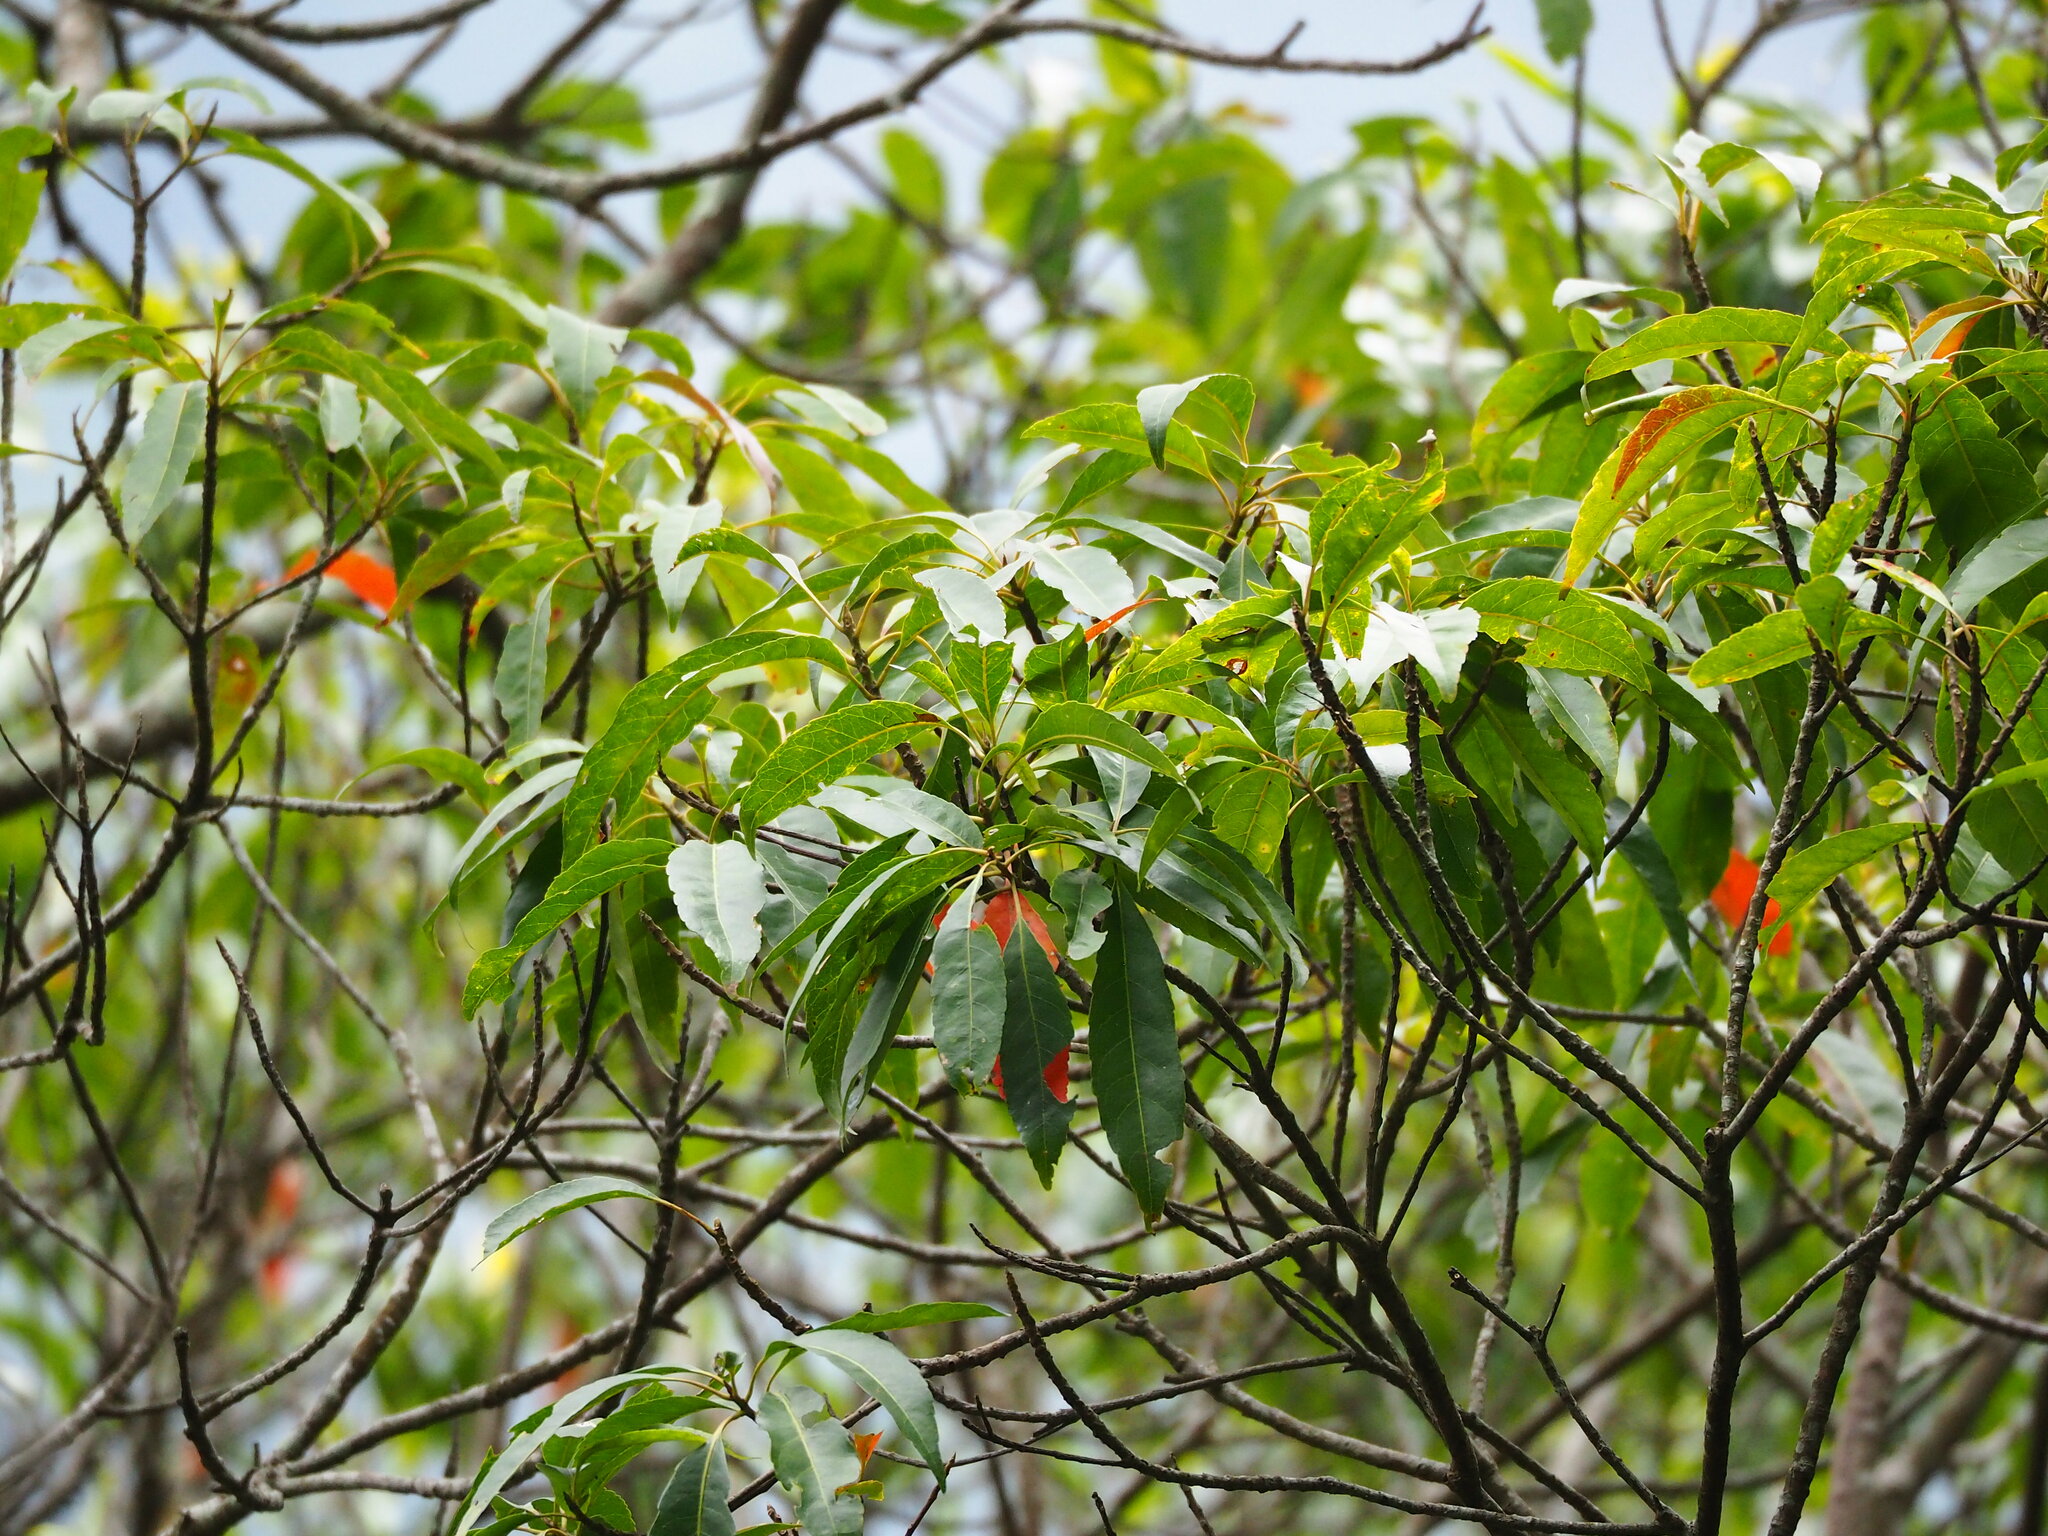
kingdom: Plantae
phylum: Tracheophyta
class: Magnoliopsida
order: Oxalidales
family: Elaeocarpaceae
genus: Elaeocarpus
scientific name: Elaeocarpus japonicus
